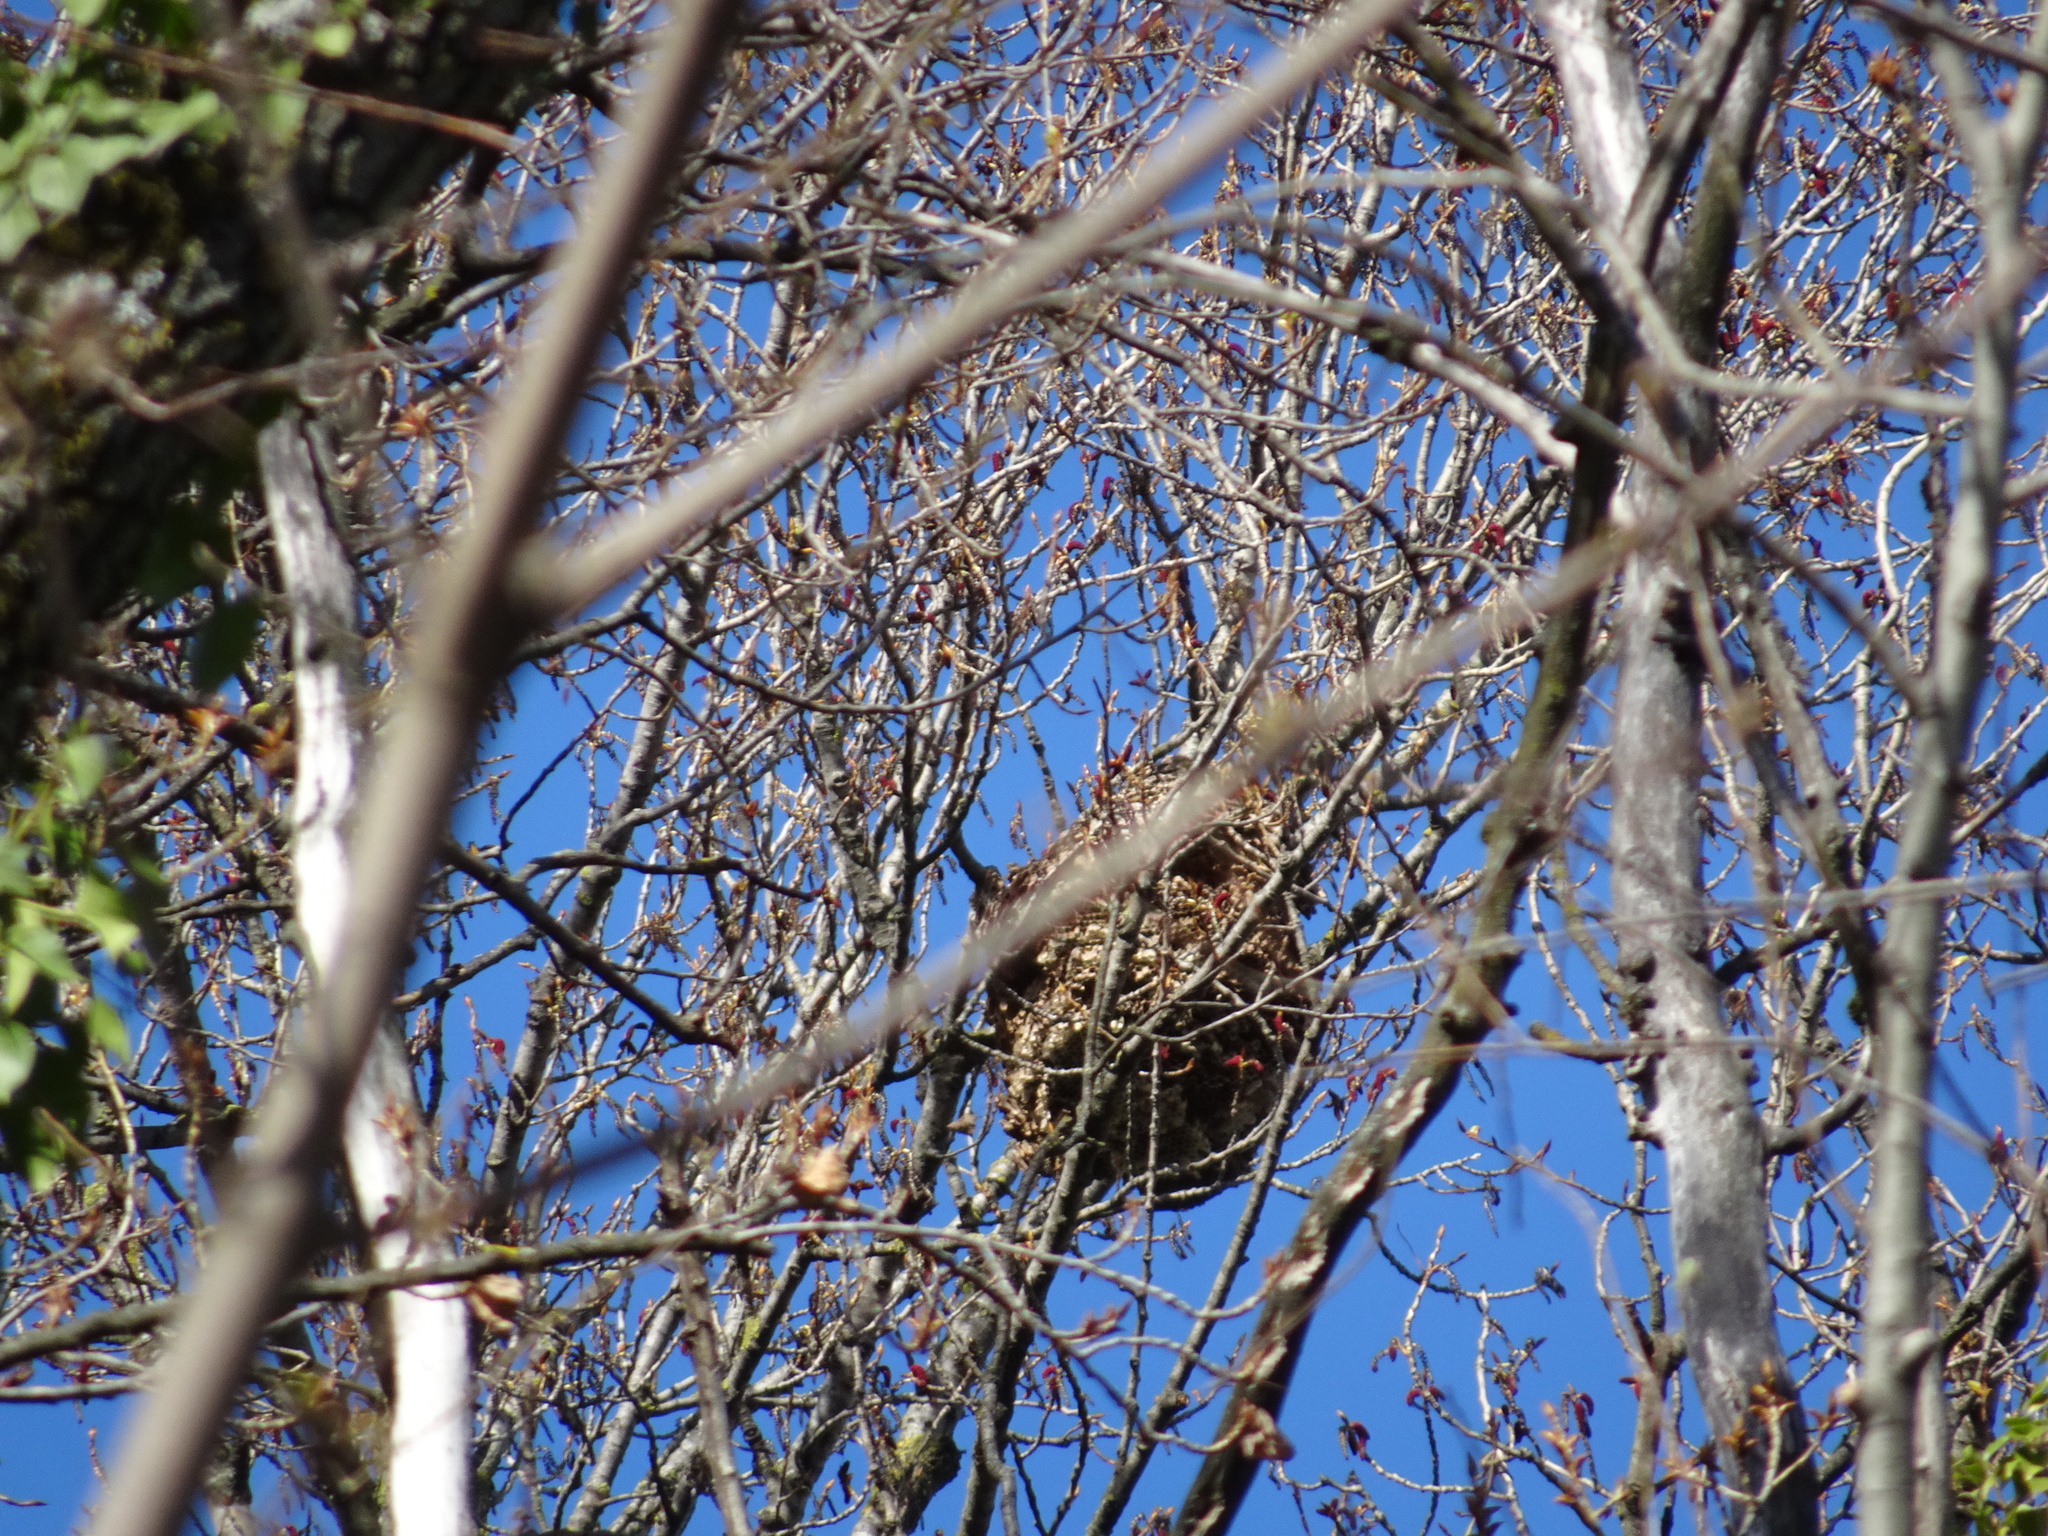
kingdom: Animalia
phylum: Arthropoda
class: Insecta
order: Hymenoptera
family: Vespidae
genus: Vespa
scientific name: Vespa velutina
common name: Asian hornet
